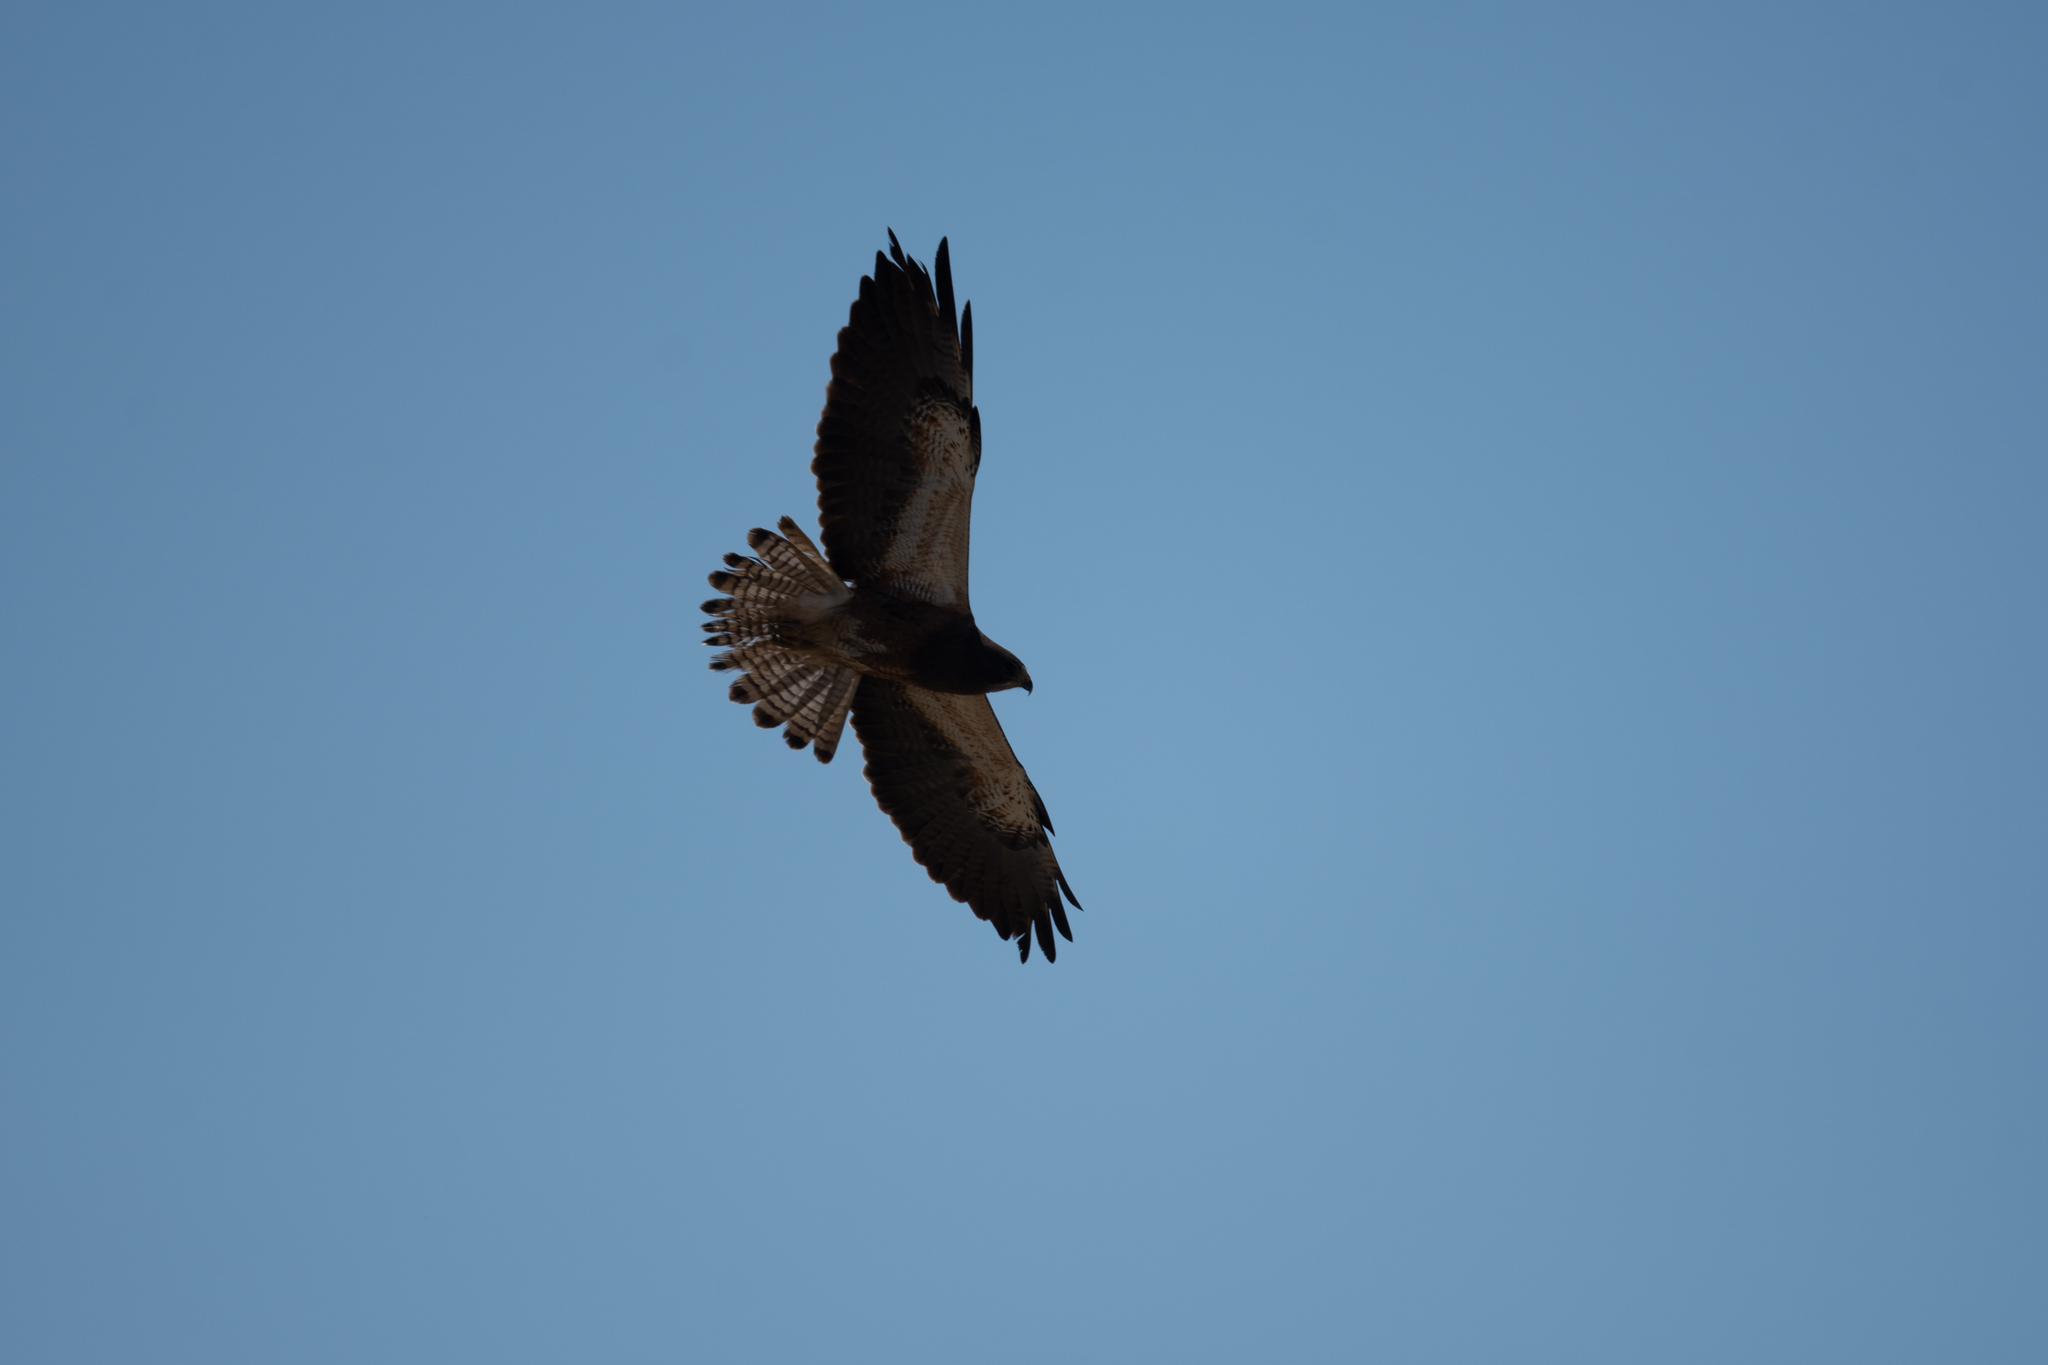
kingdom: Animalia
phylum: Chordata
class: Aves
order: Accipitriformes
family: Accipitridae
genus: Buteo
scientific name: Buteo swainsoni
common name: Swainson's hawk
